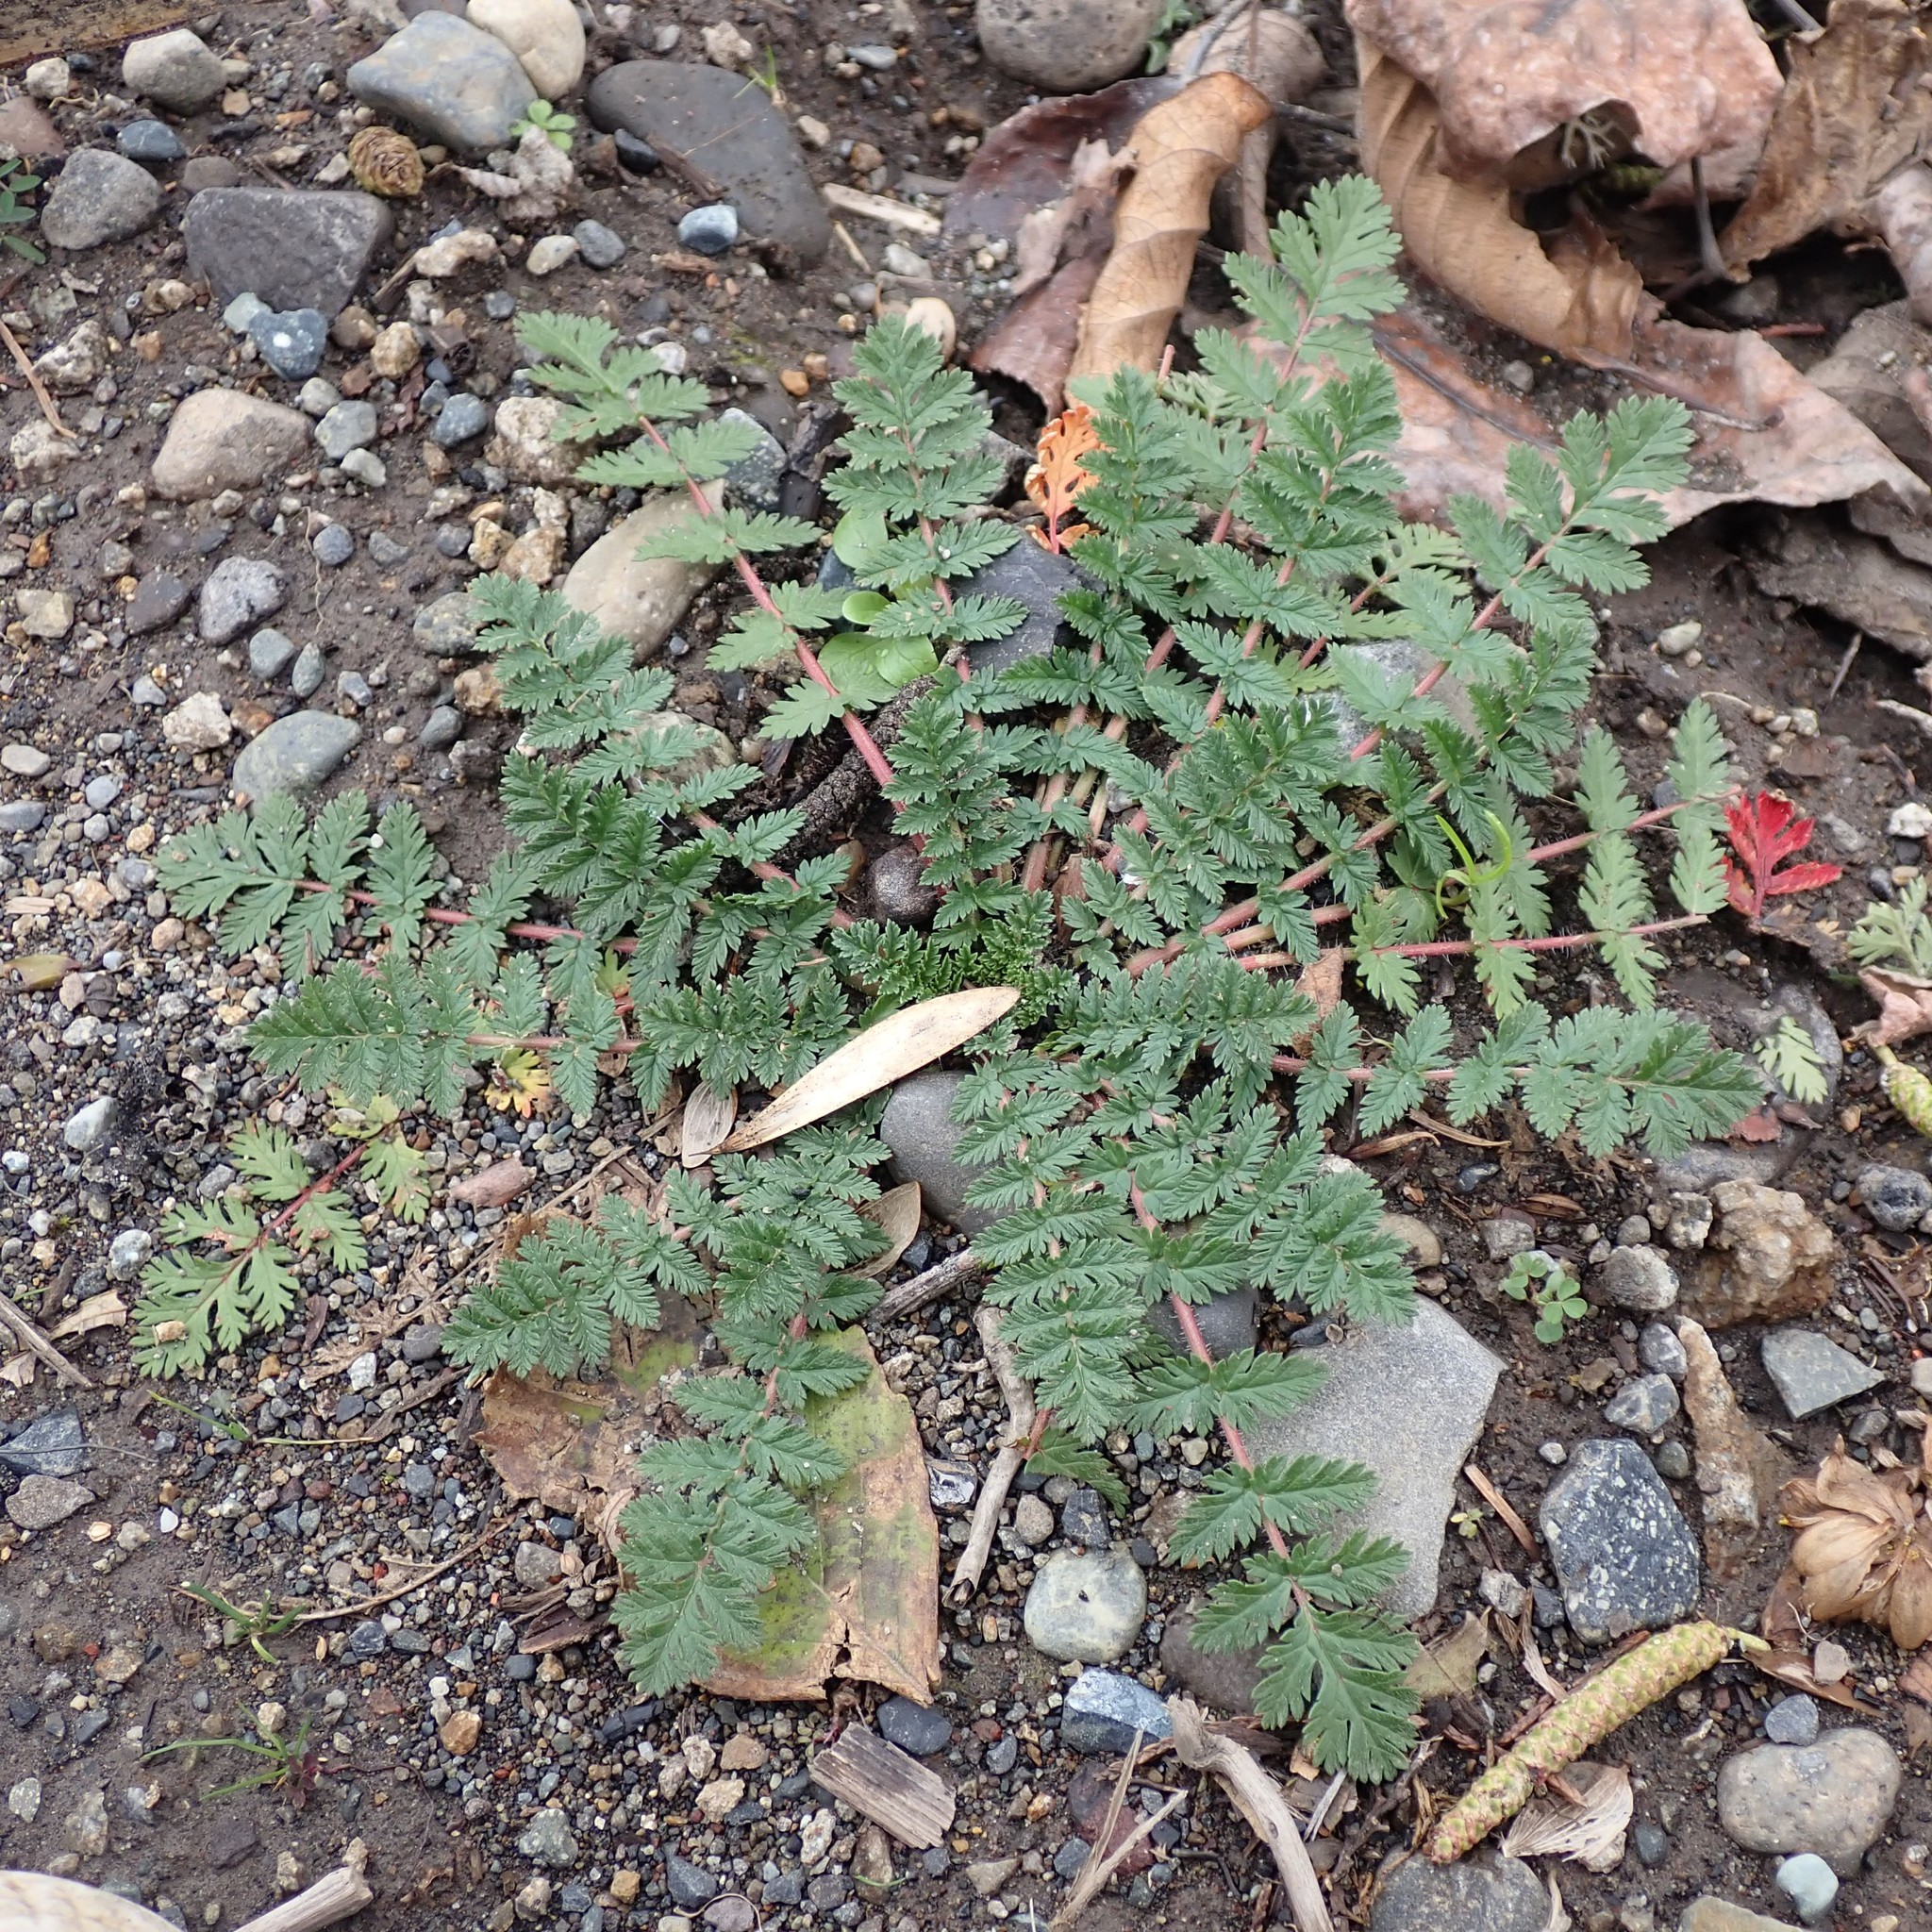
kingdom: Plantae
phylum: Tracheophyta
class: Magnoliopsida
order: Geraniales
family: Geraniaceae
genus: Erodium
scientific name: Erodium cicutarium
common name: Common stork's-bill
